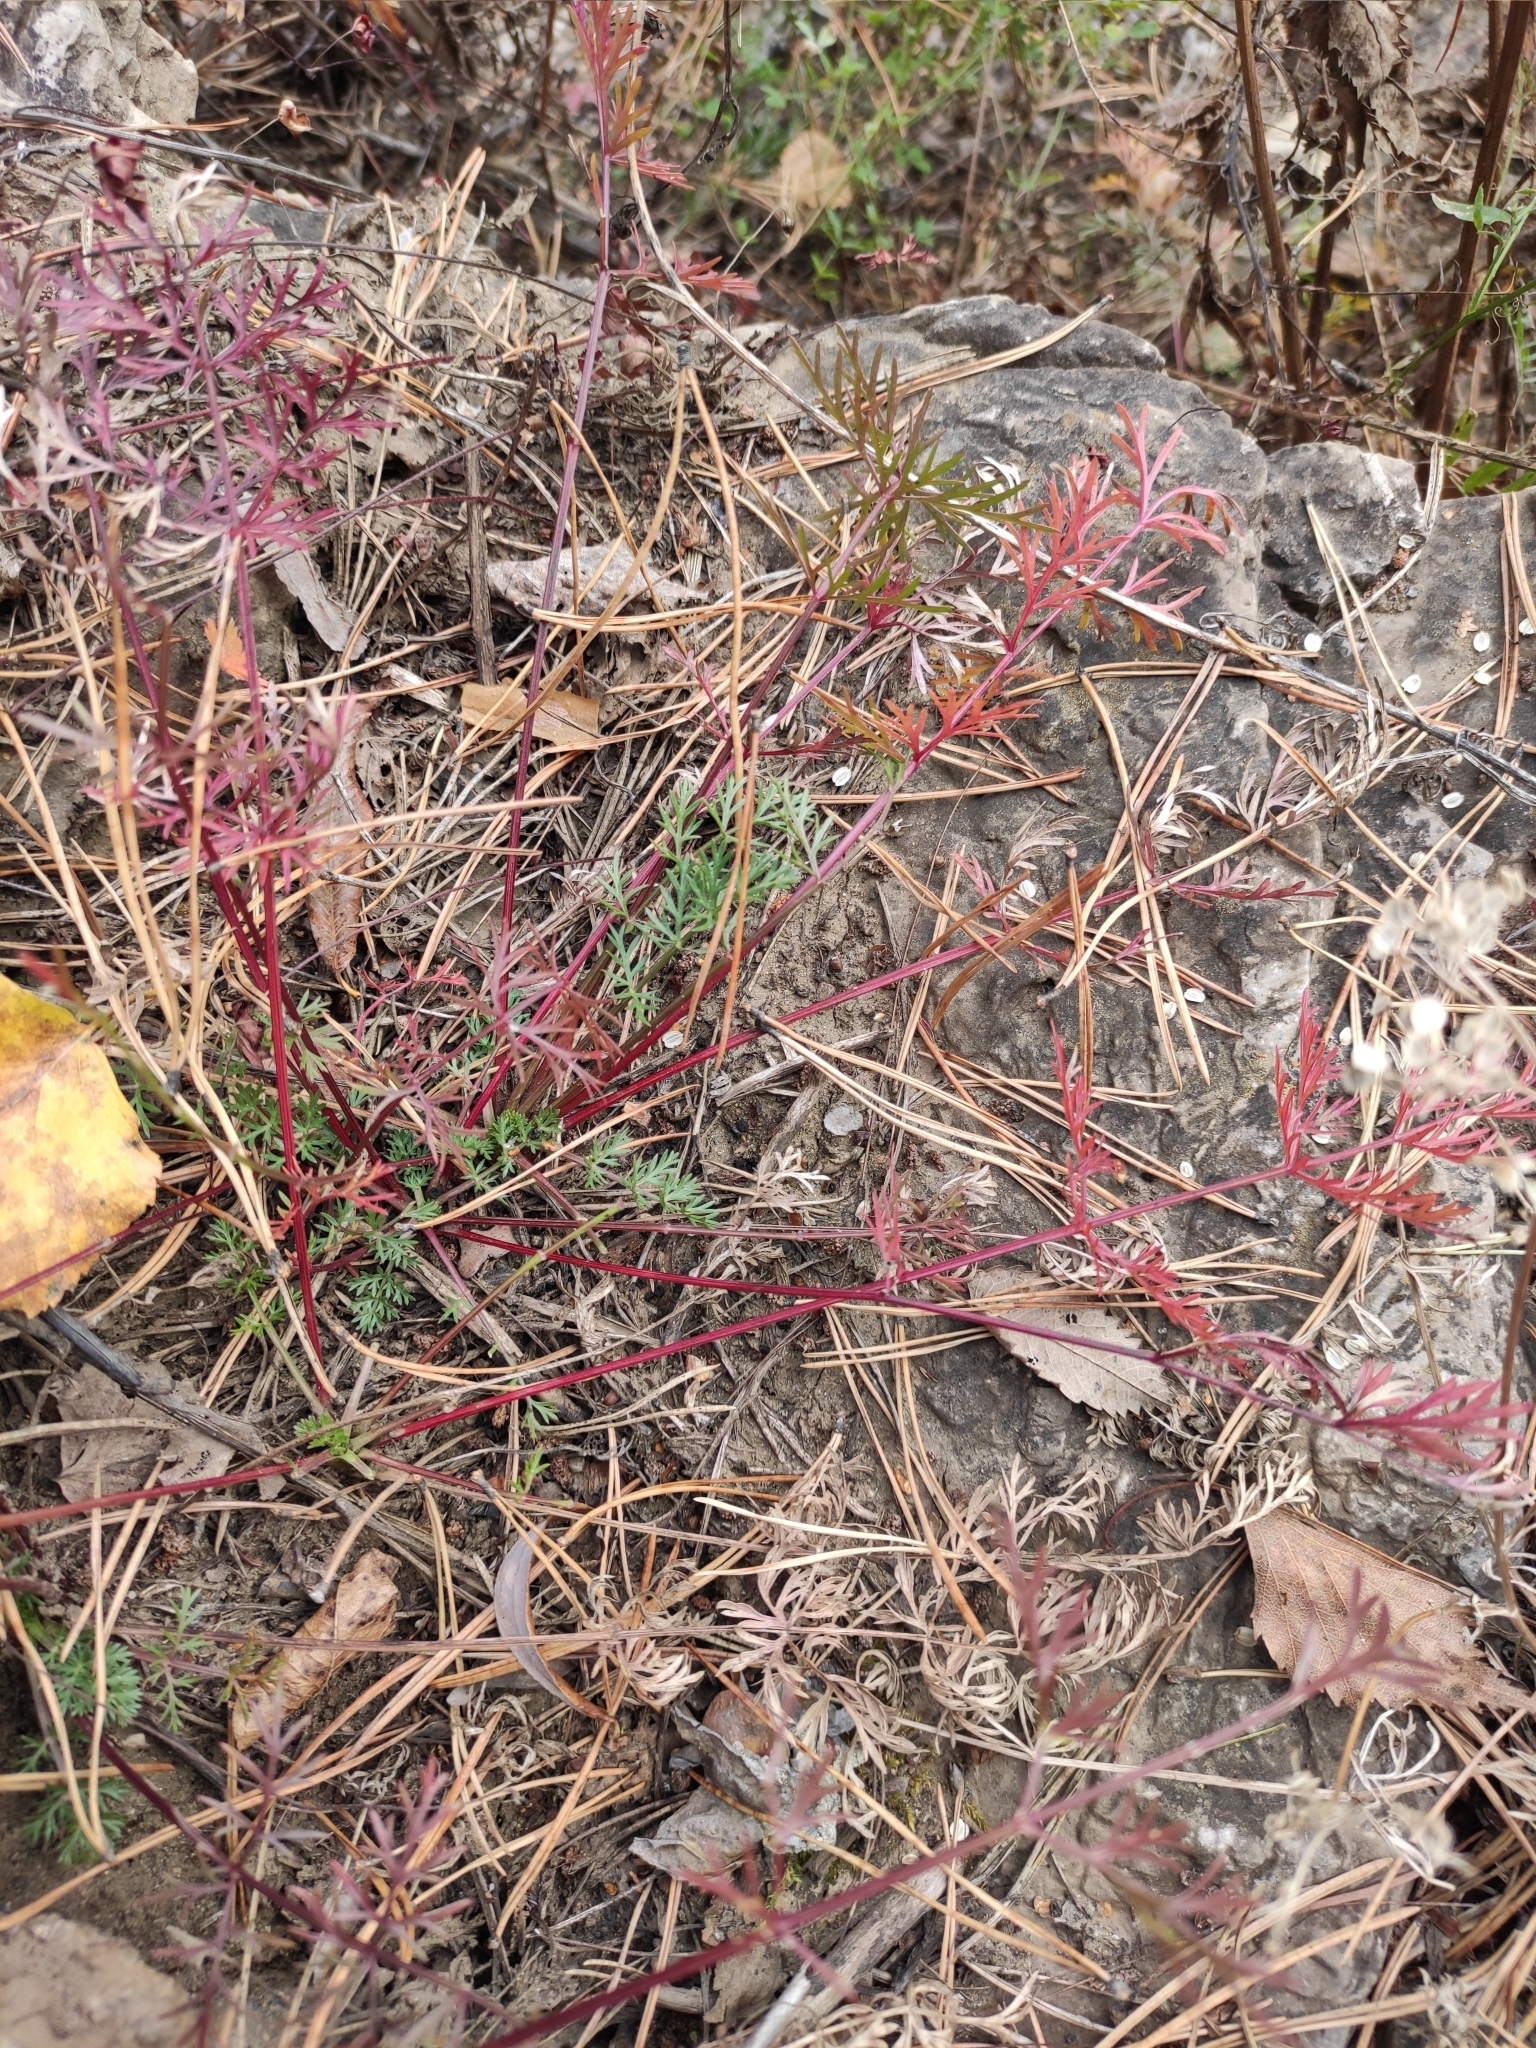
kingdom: Plantae
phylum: Tracheophyta
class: Magnoliopsida
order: Apiales
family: Apiaceae
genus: Kitagawia
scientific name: Kitagawia baicalensis
